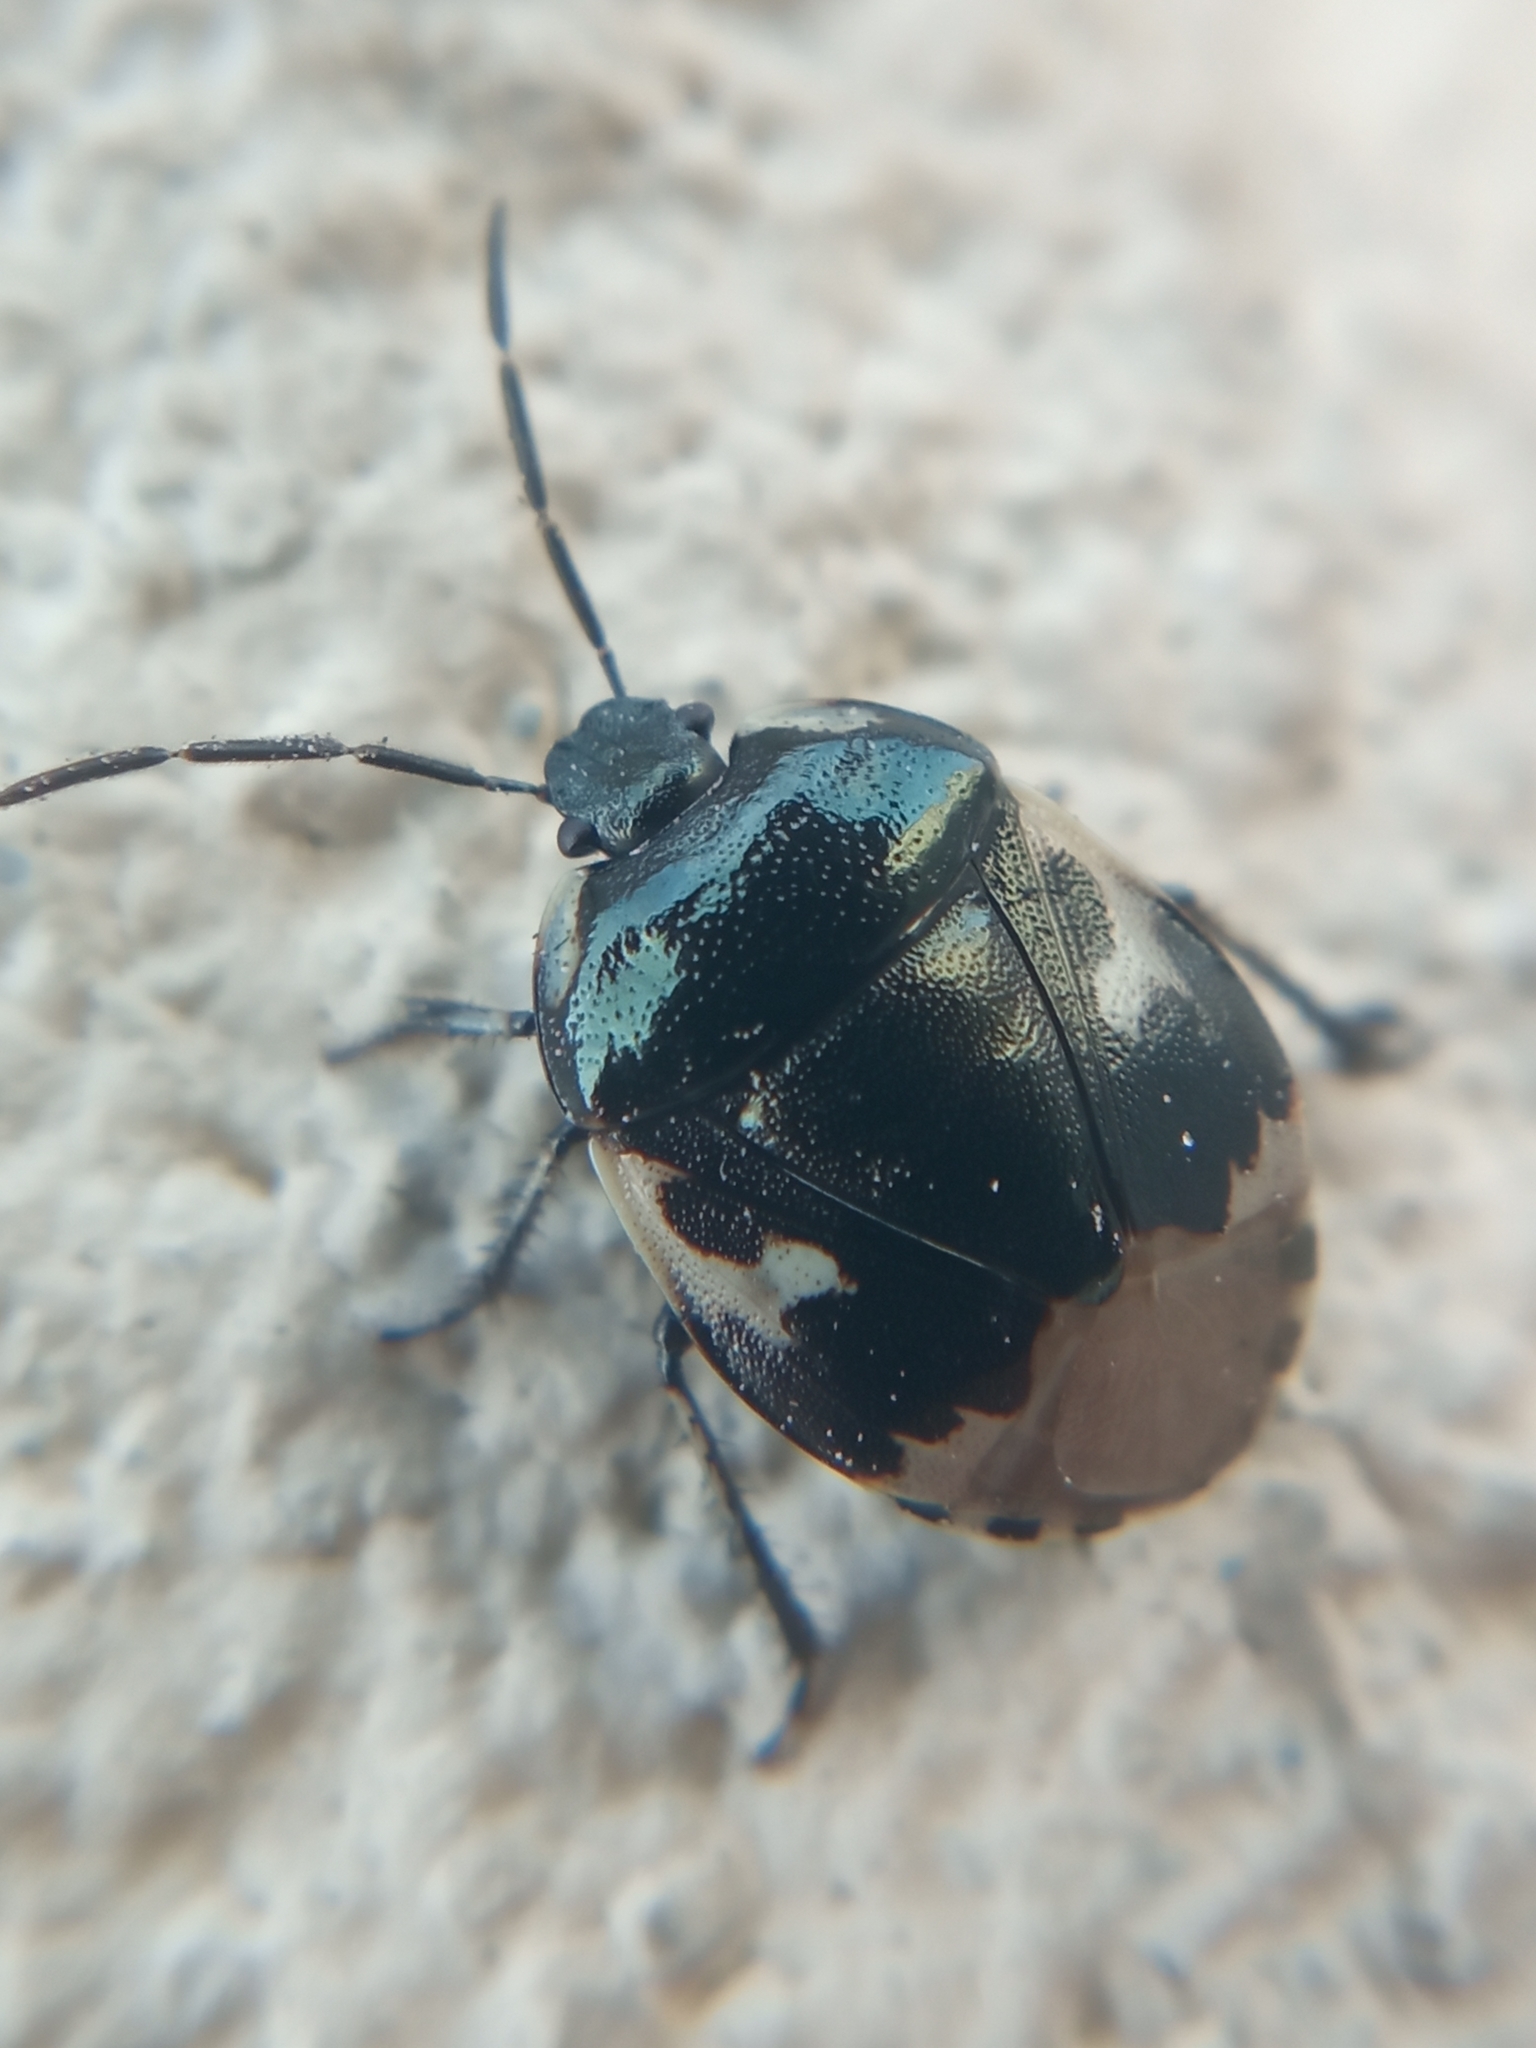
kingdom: Animalia
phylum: Arthropoda
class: Insecta
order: Hemiptera
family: Cydnidae
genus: Tritomegas
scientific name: Tritomegas bicolor
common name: Pied shieldbug
